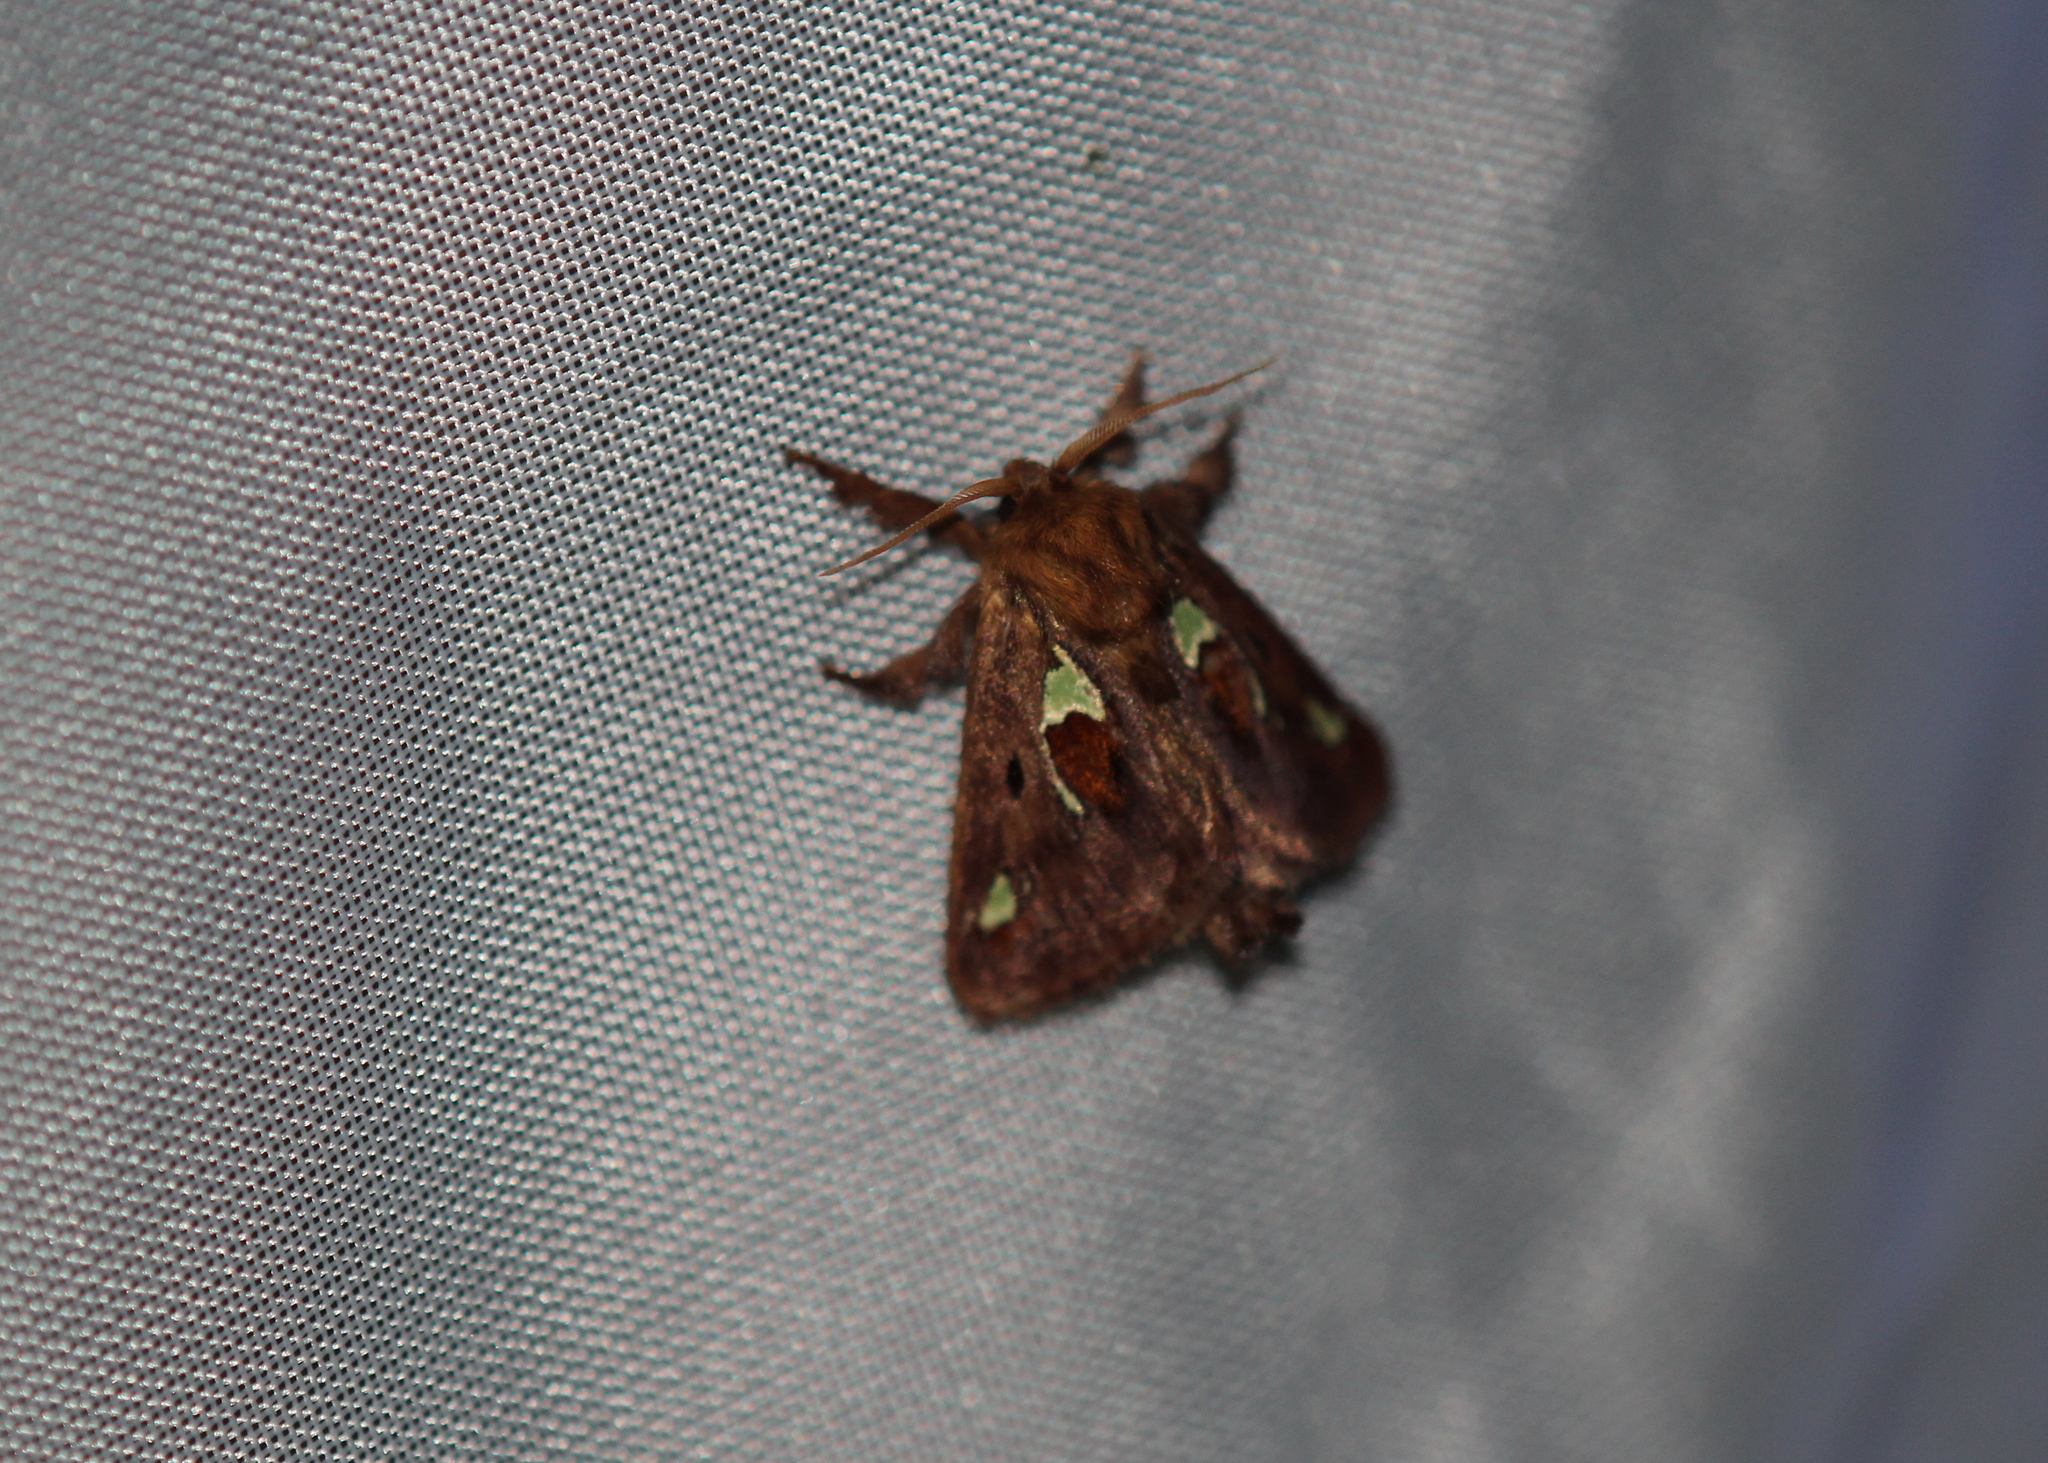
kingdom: Animalia
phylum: Arthropoda
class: Insecta
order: Lepidoptera
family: Limacodidae
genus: Euclea
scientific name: Euclea delphinii
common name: Spiny oak-slug moth
